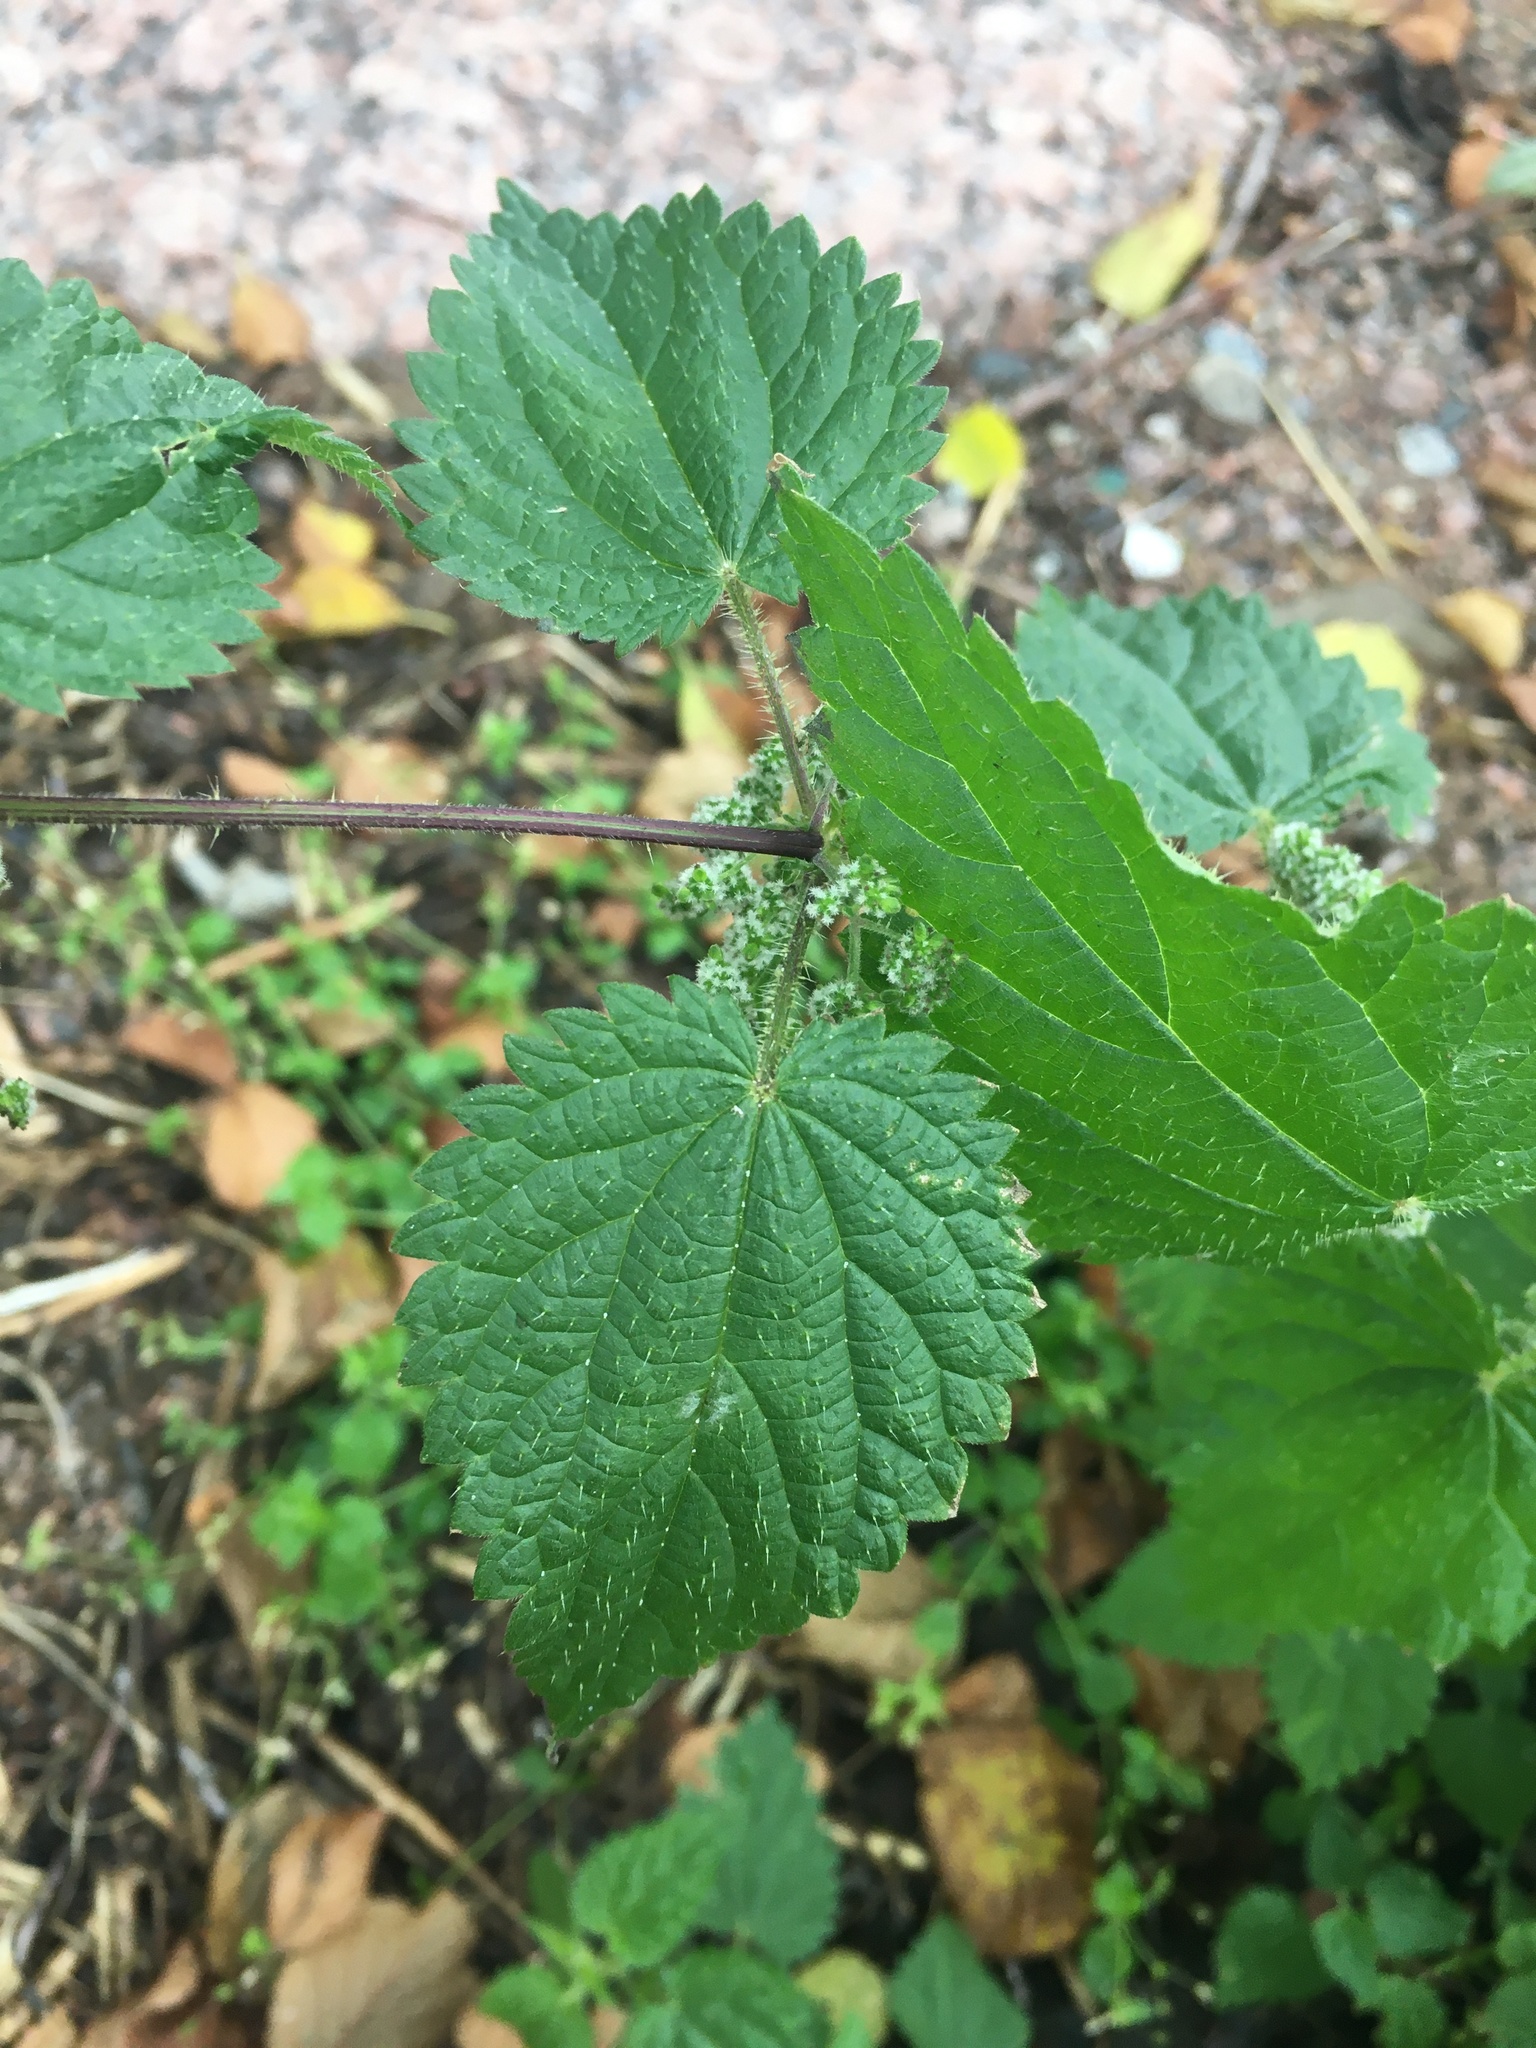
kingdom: Plantae
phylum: Tracheophyta
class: Magnoliopsida
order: Rosales
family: Urticaceae
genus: Urtica
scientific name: Urtica dioica
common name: Common nettle
